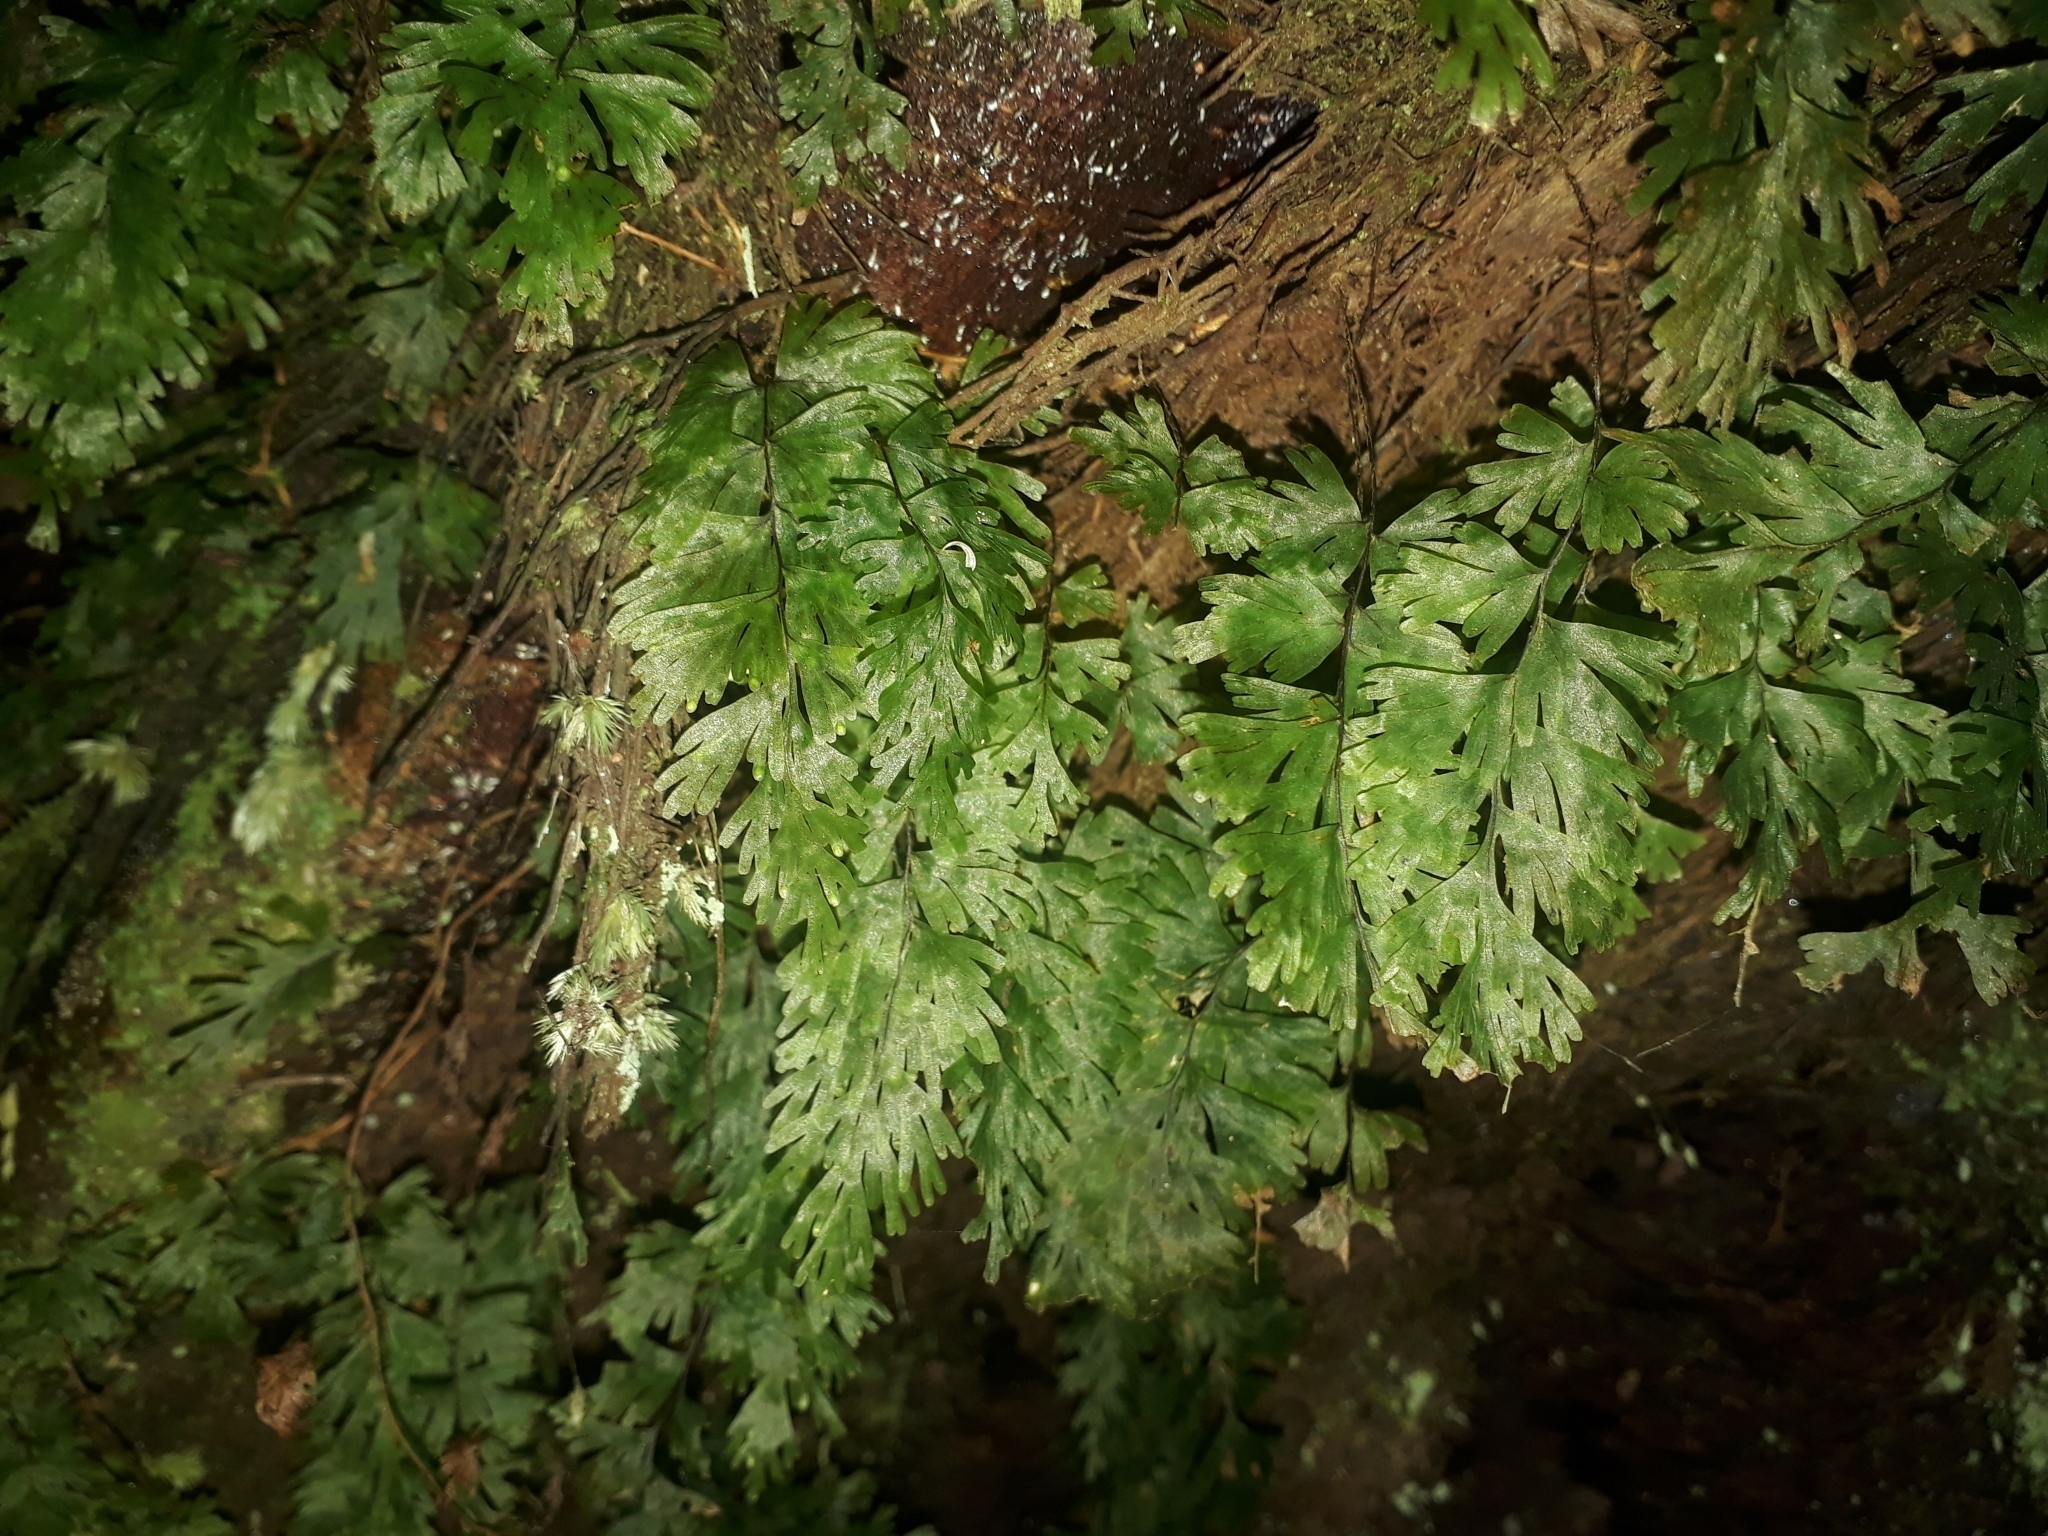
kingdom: Plantae
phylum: Tracheophyta
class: Polypodiopsida
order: Hymenophyllales
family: Hymenophyllaceae
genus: Hymenophyllum
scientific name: Hymenophyllum flabellatum
